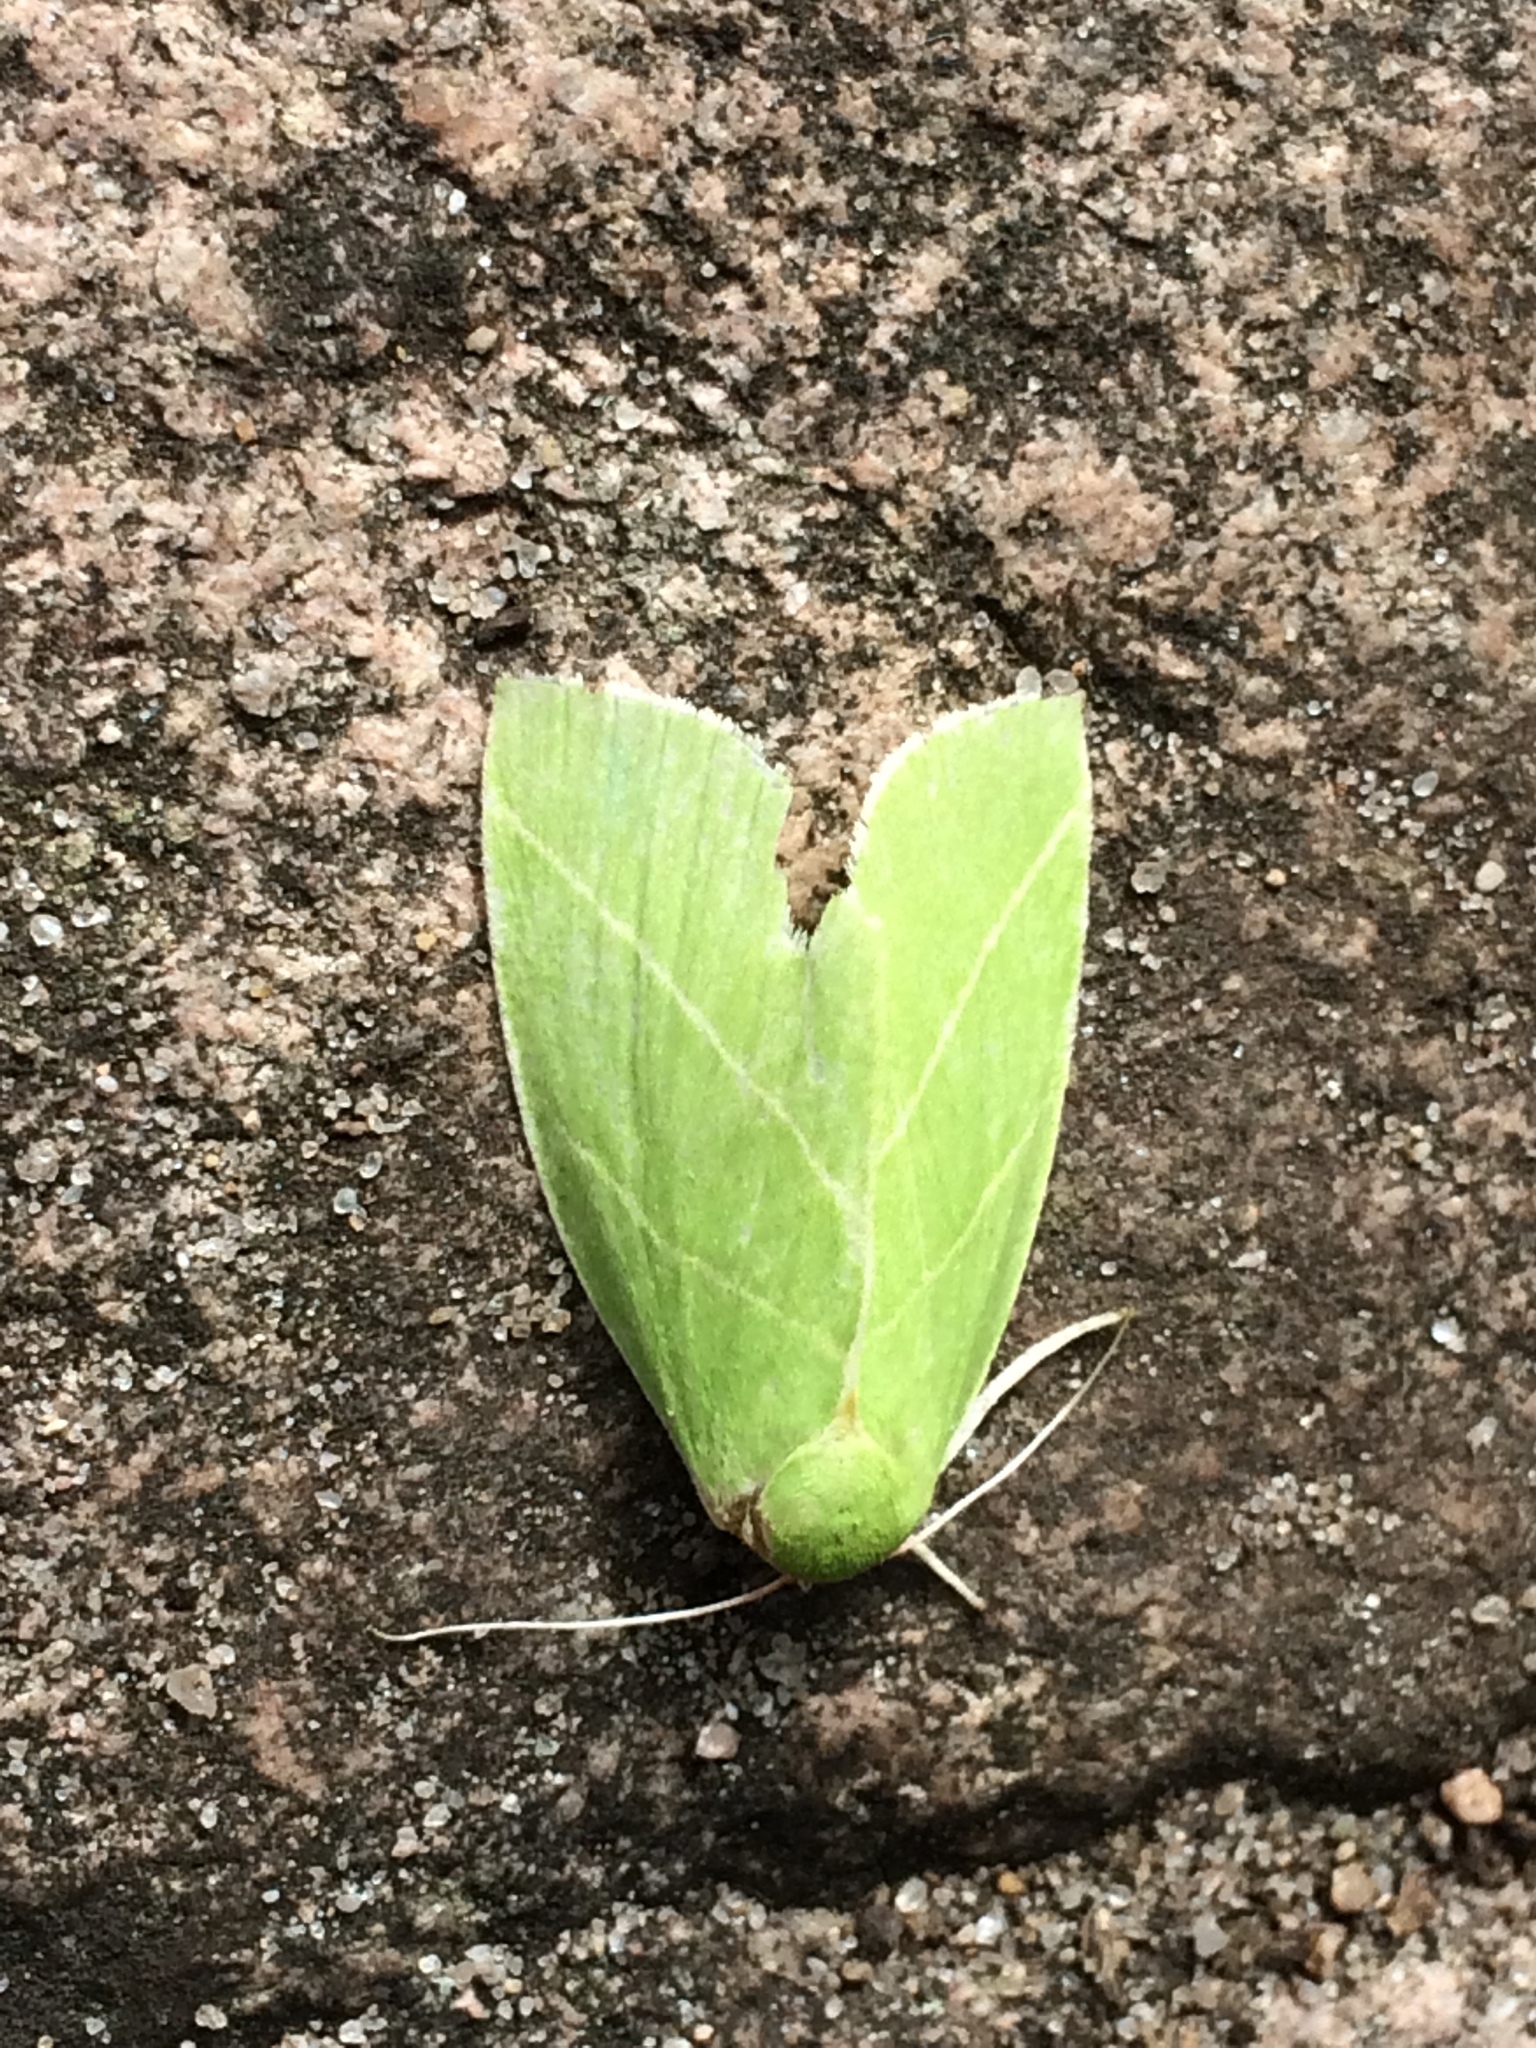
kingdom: Animalia
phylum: Arthropoda
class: Insecta
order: Lepidoptera
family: Nolidae
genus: Bena
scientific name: Bena bicolorana
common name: Scarce silver-lines
